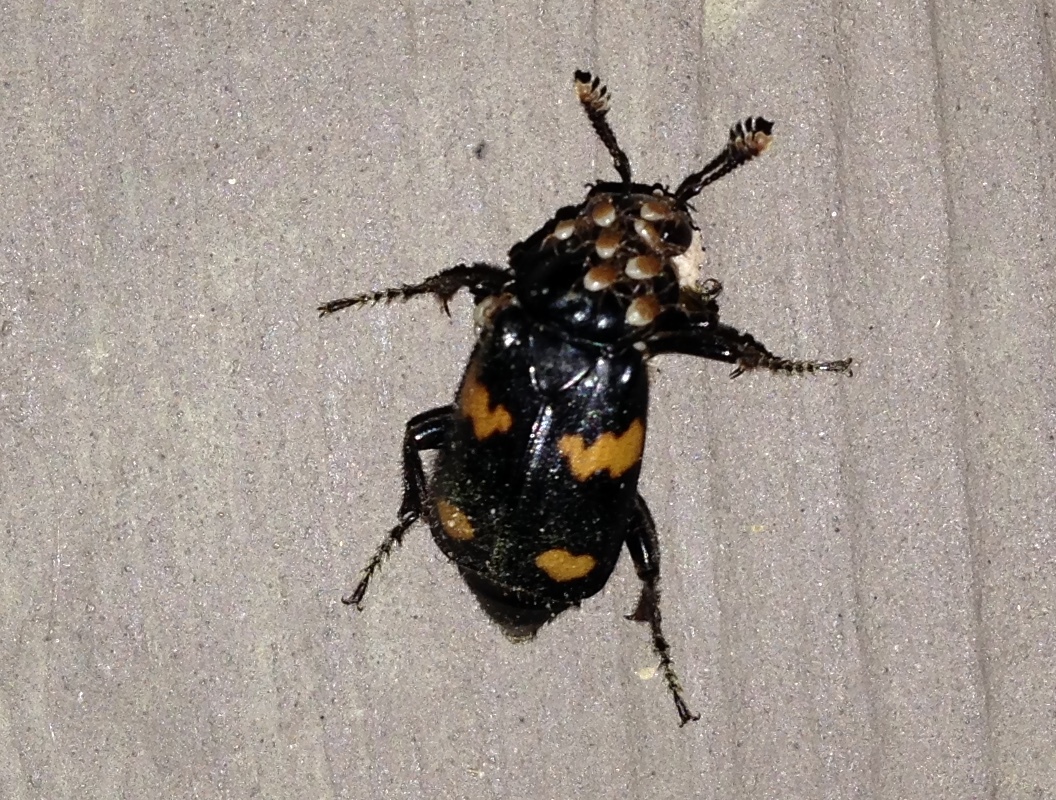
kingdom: Animalia
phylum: Arthropoda
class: Insecta
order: Coleoptera
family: Staphylinidae
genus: Nicrophorus
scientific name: Nicrophorus orbicollis
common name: Roundneck sexton beetle
